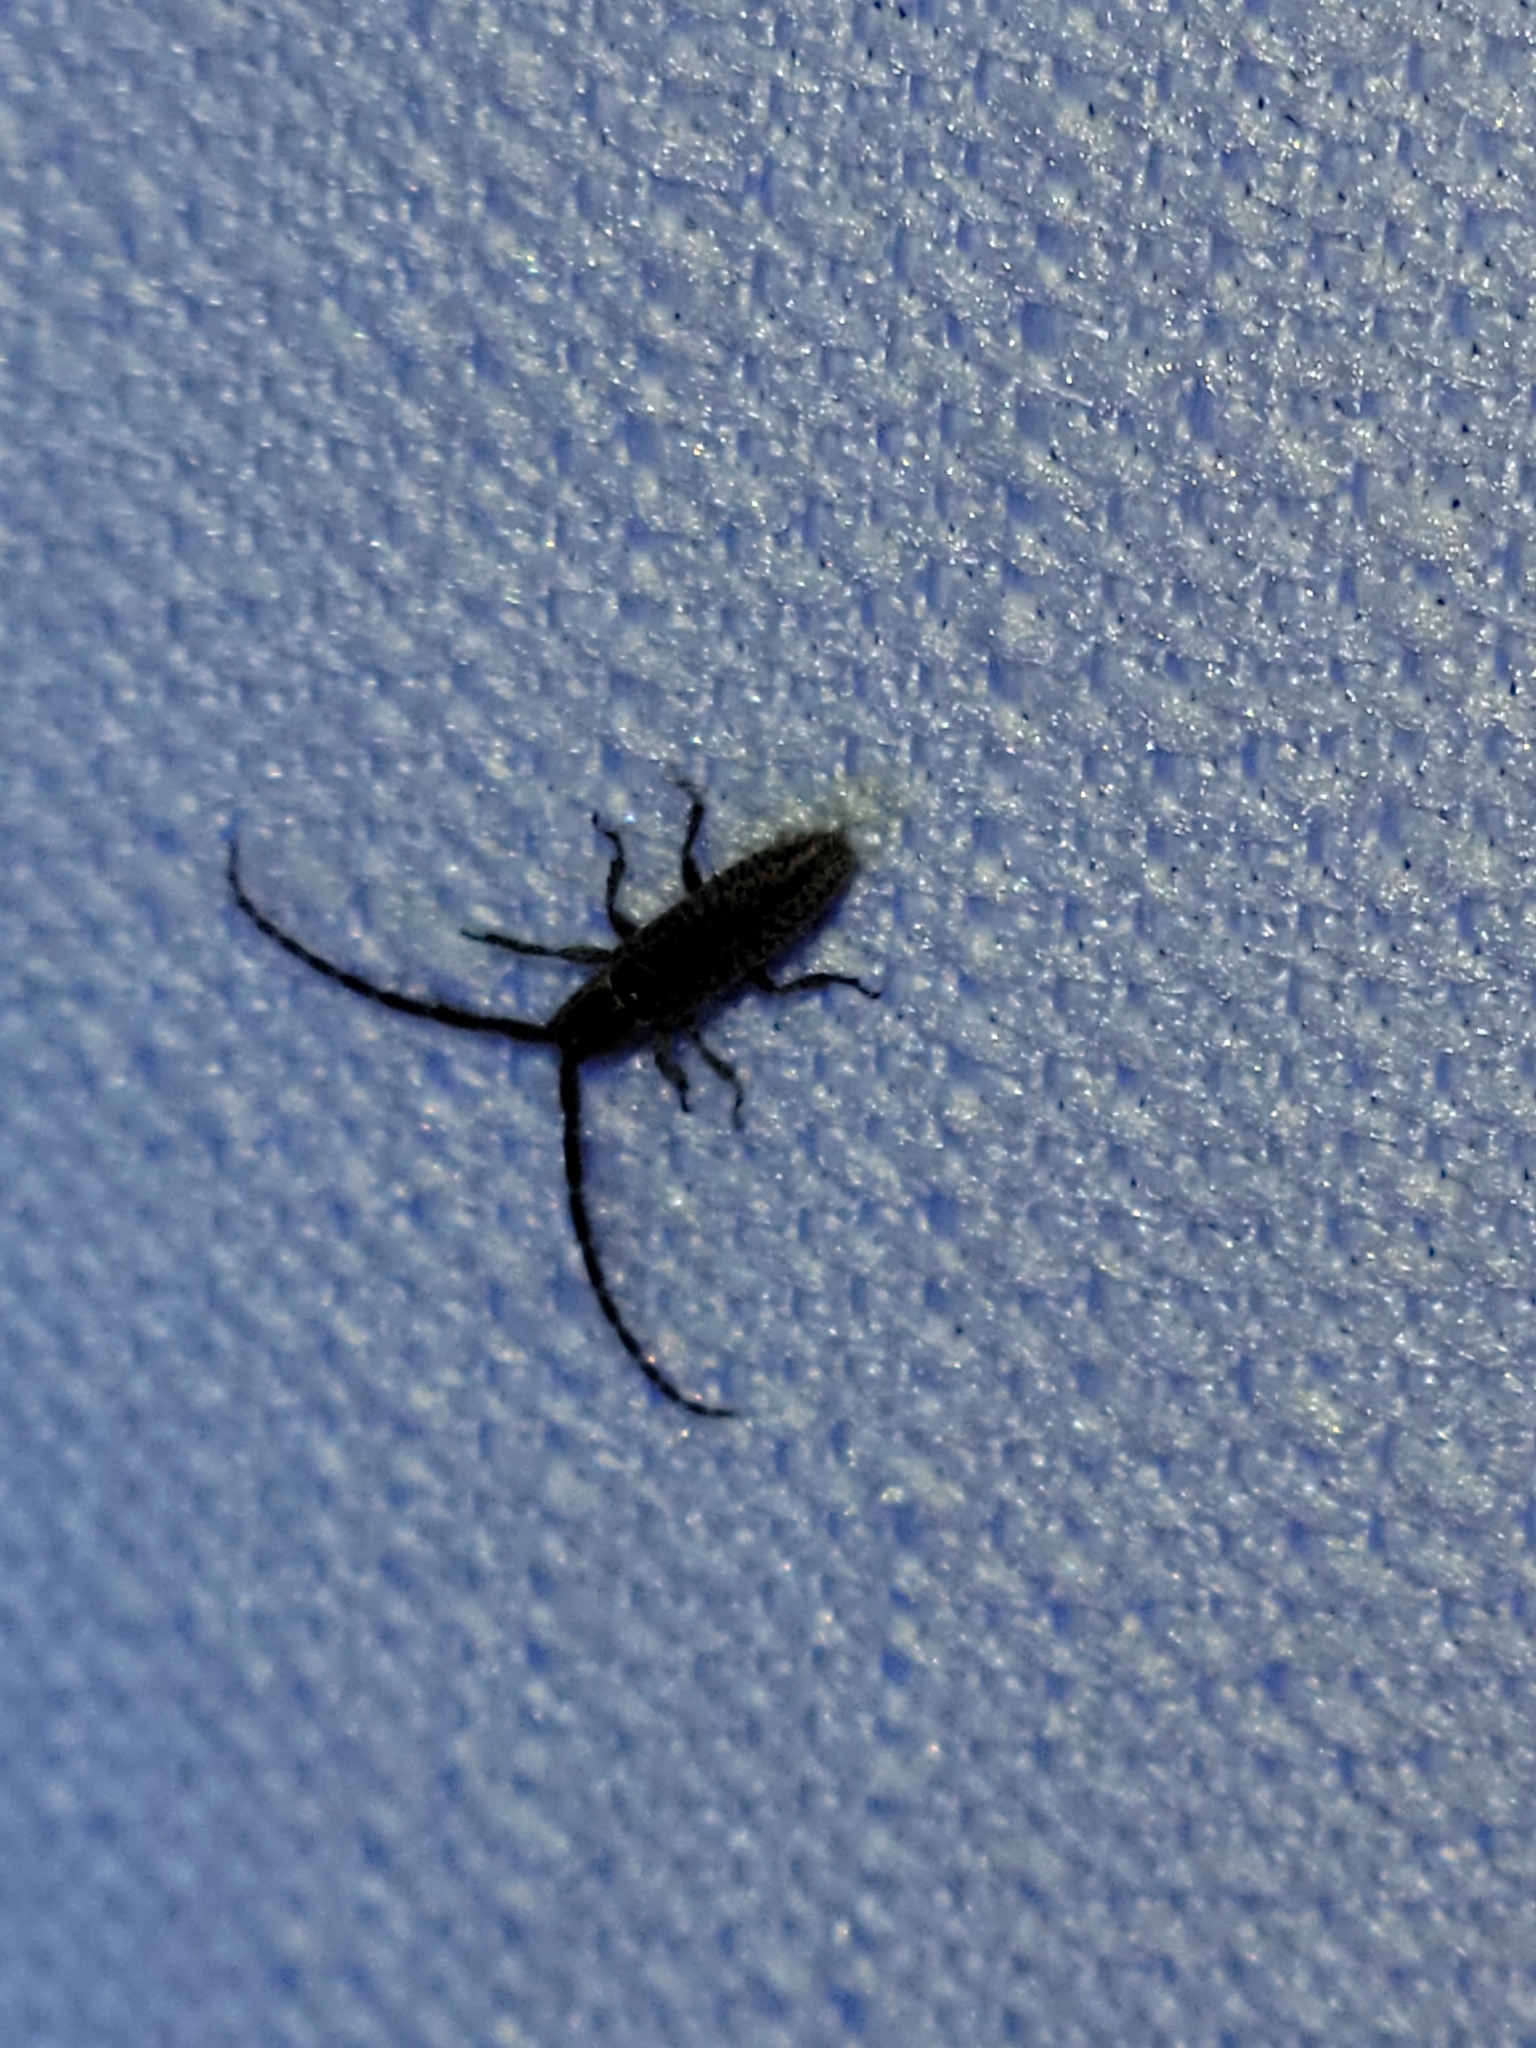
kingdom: Animalia
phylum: Arthropoda
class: Insecta
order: Coleoptera
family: Cerambycidae
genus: Dorcasta
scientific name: Dorcasta cinerea
